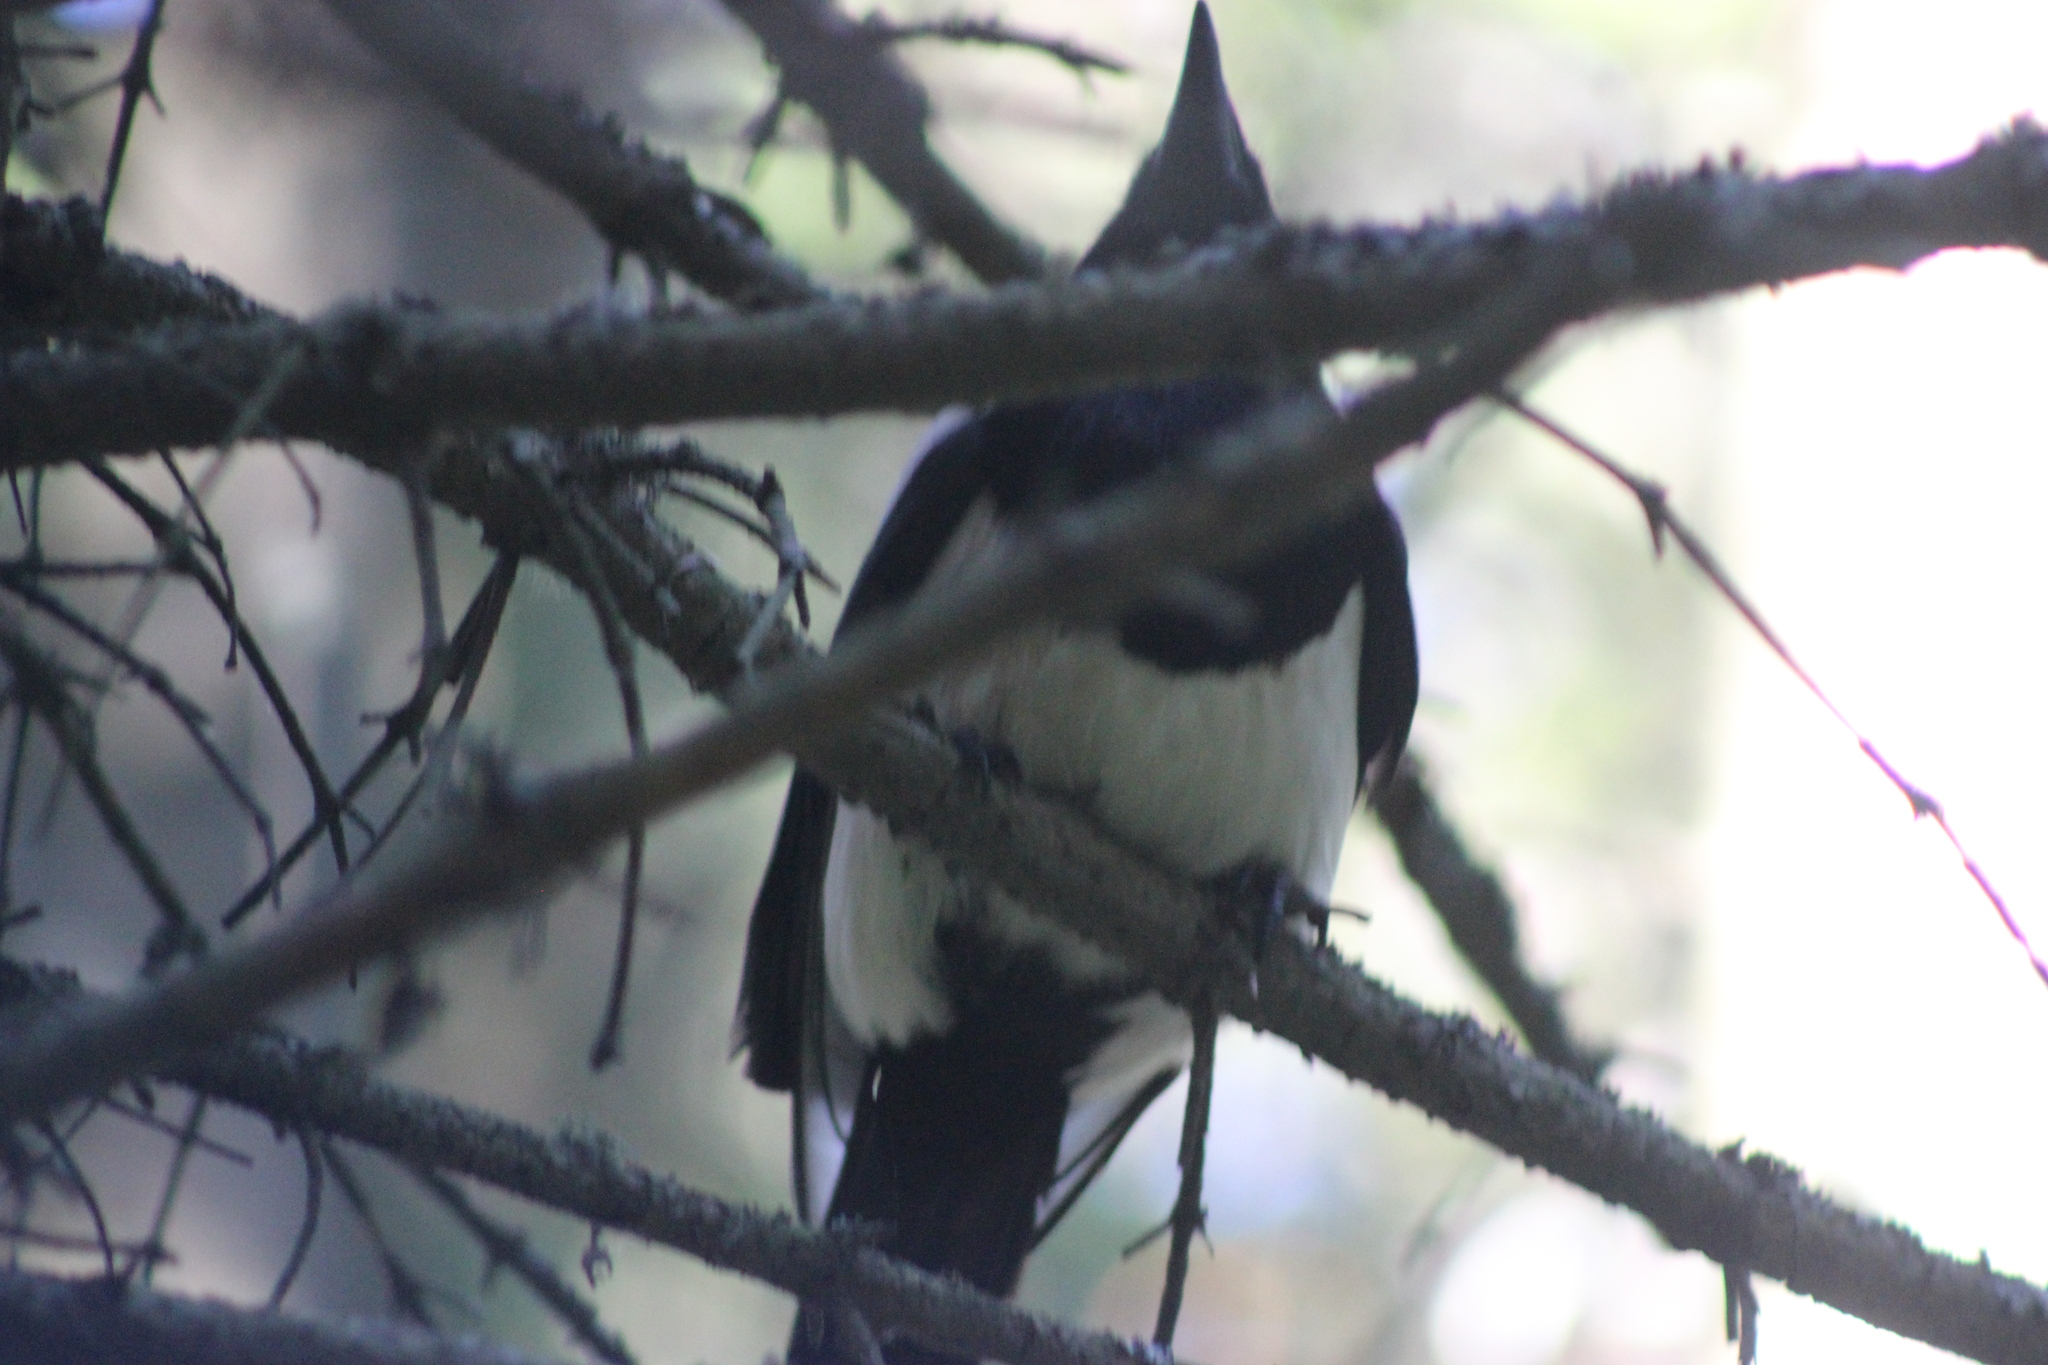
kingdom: Animalia
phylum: Chordata
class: Aves
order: Passeriformes
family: Corvidae
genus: Pica
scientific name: Pica pica
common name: Eurasian magpie
